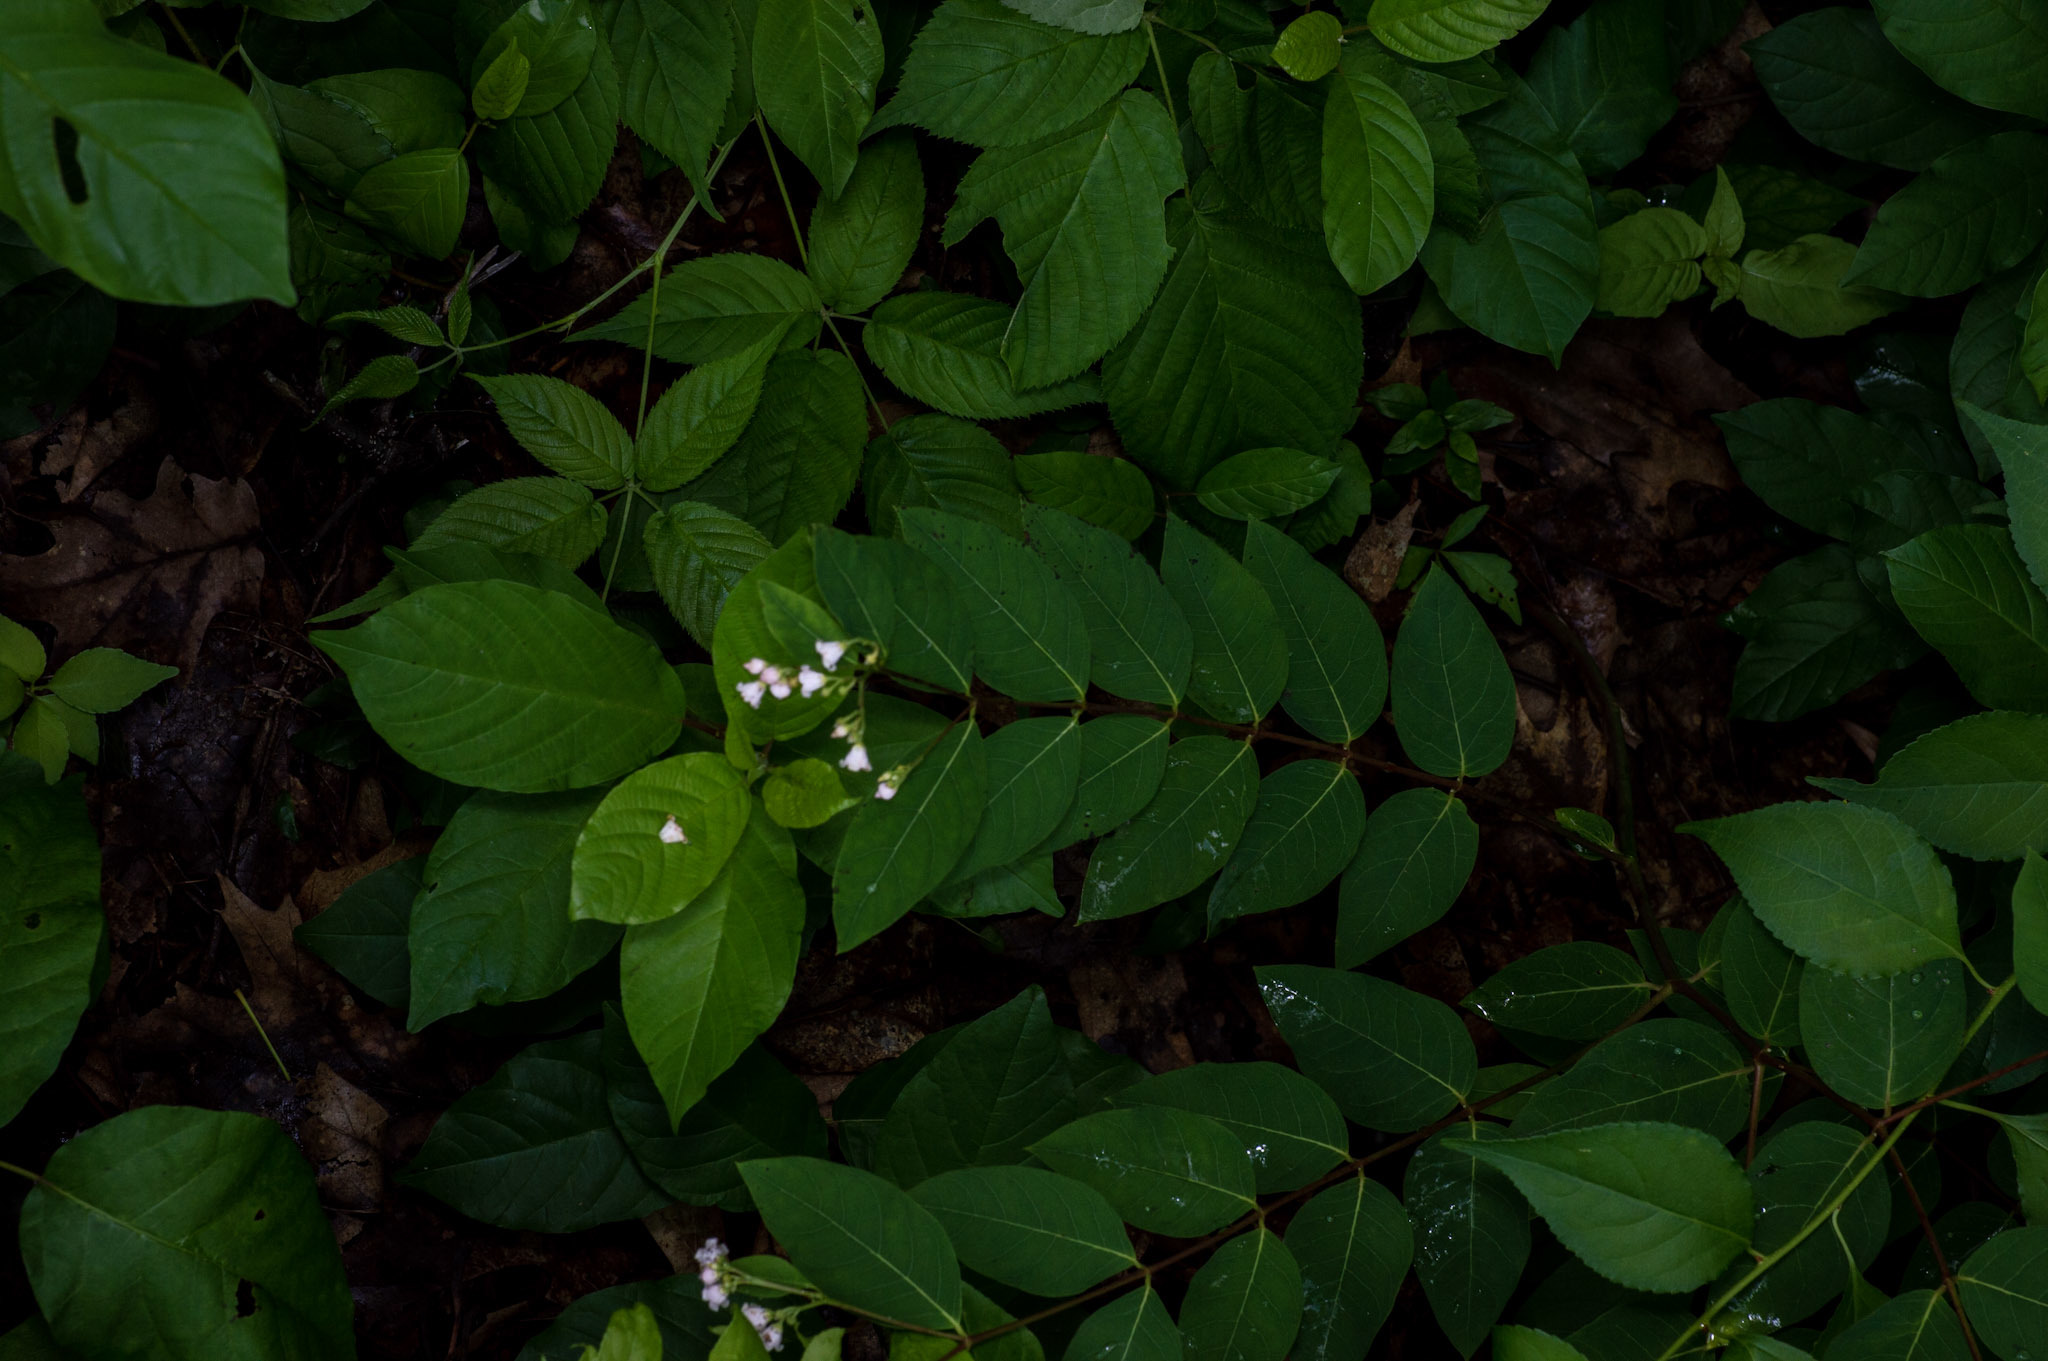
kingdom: Plantae
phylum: Tracheophyta
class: Magnoliopsida
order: Gentianales
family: Apocynaceae
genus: Apocynum
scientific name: Apocynum androsaemifolium
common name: Spreading dogbane
